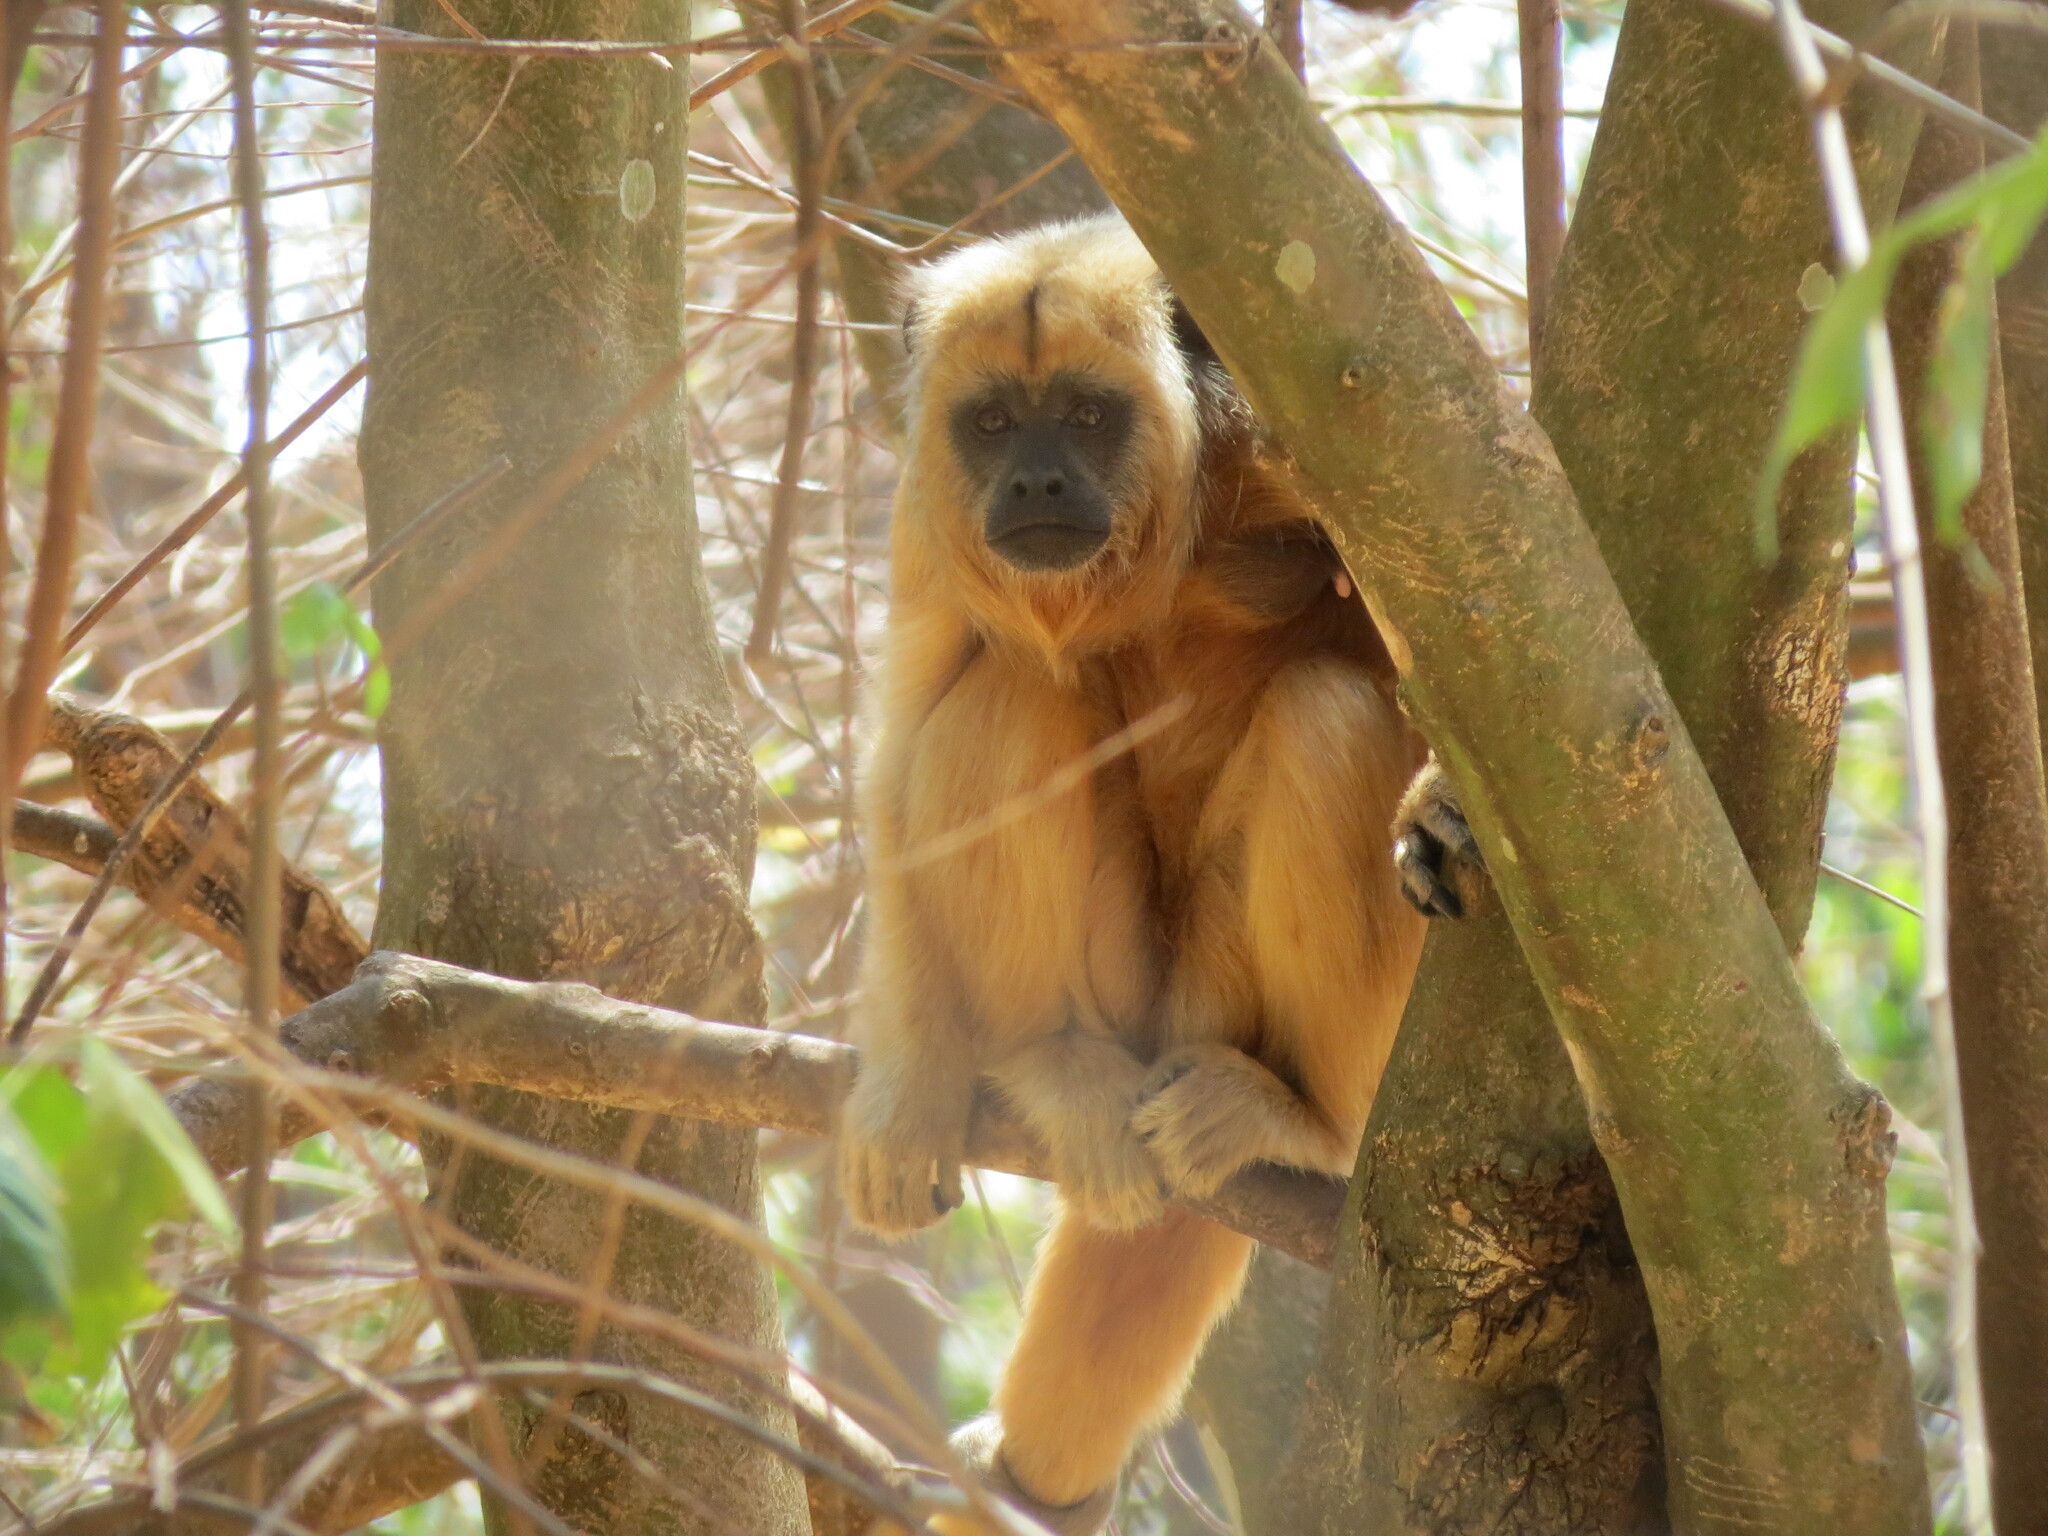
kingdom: Animalia
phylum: Chordata
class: Mammalia
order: Primates
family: Atelidae
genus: Alouatta
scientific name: Alouatta caraya
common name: Black howler
